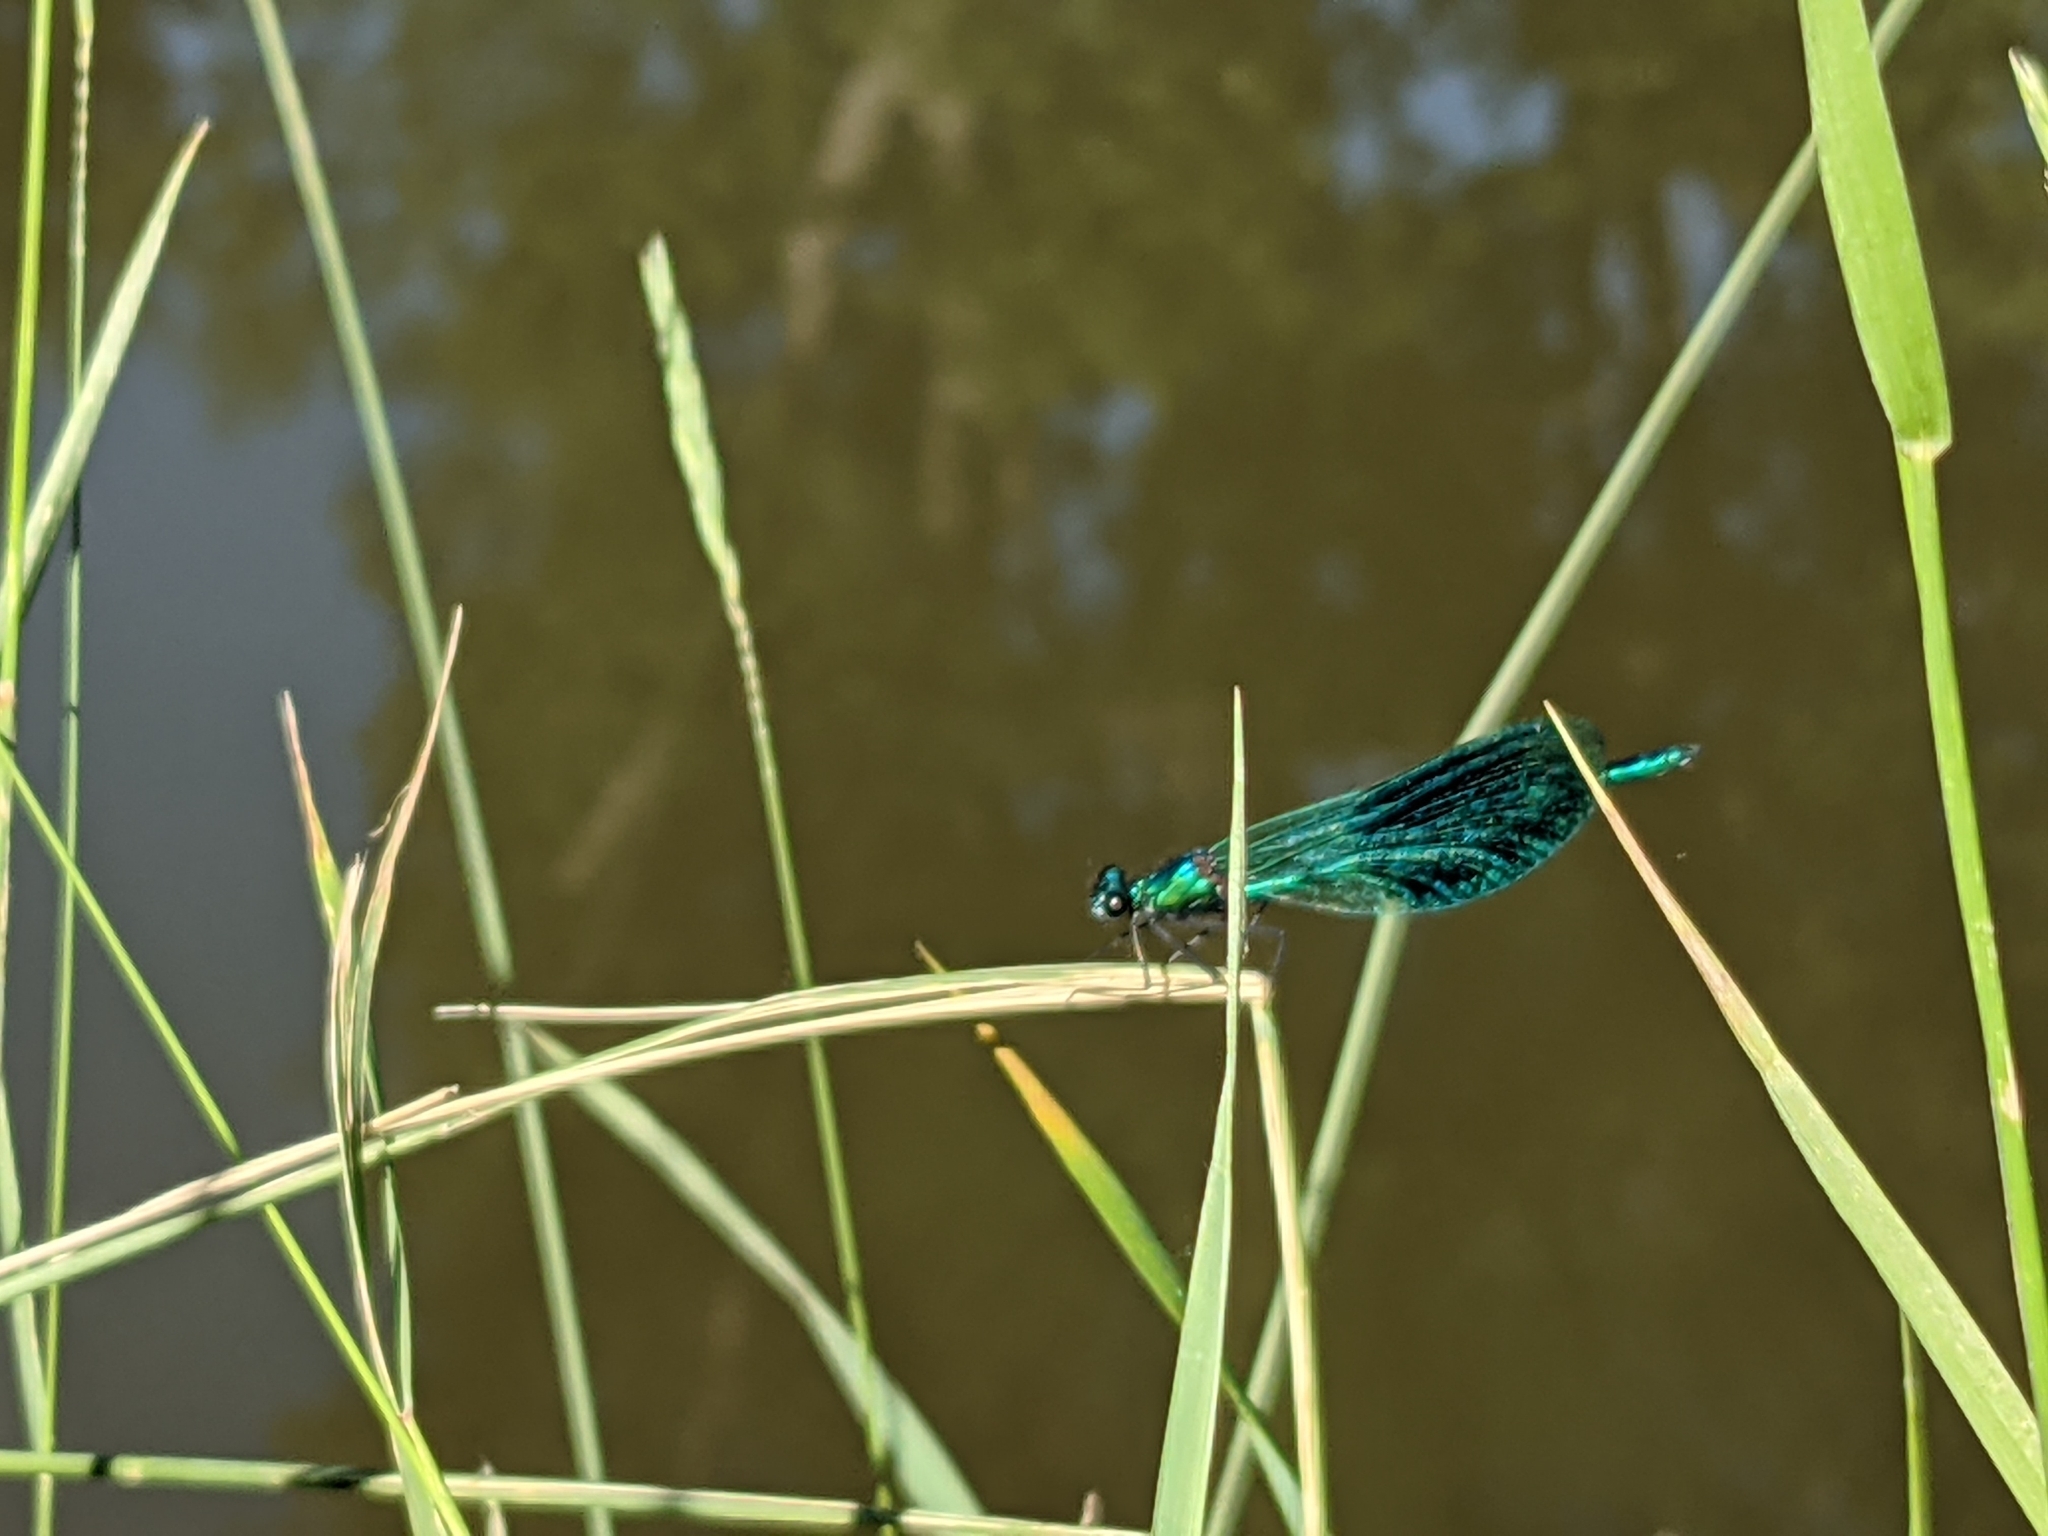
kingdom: Animalia
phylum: Arthropoda
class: Insecta
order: Odonata
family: Calopterygidae
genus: Calopteryx
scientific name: Calopteryx splendens
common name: Banded demoiselle
